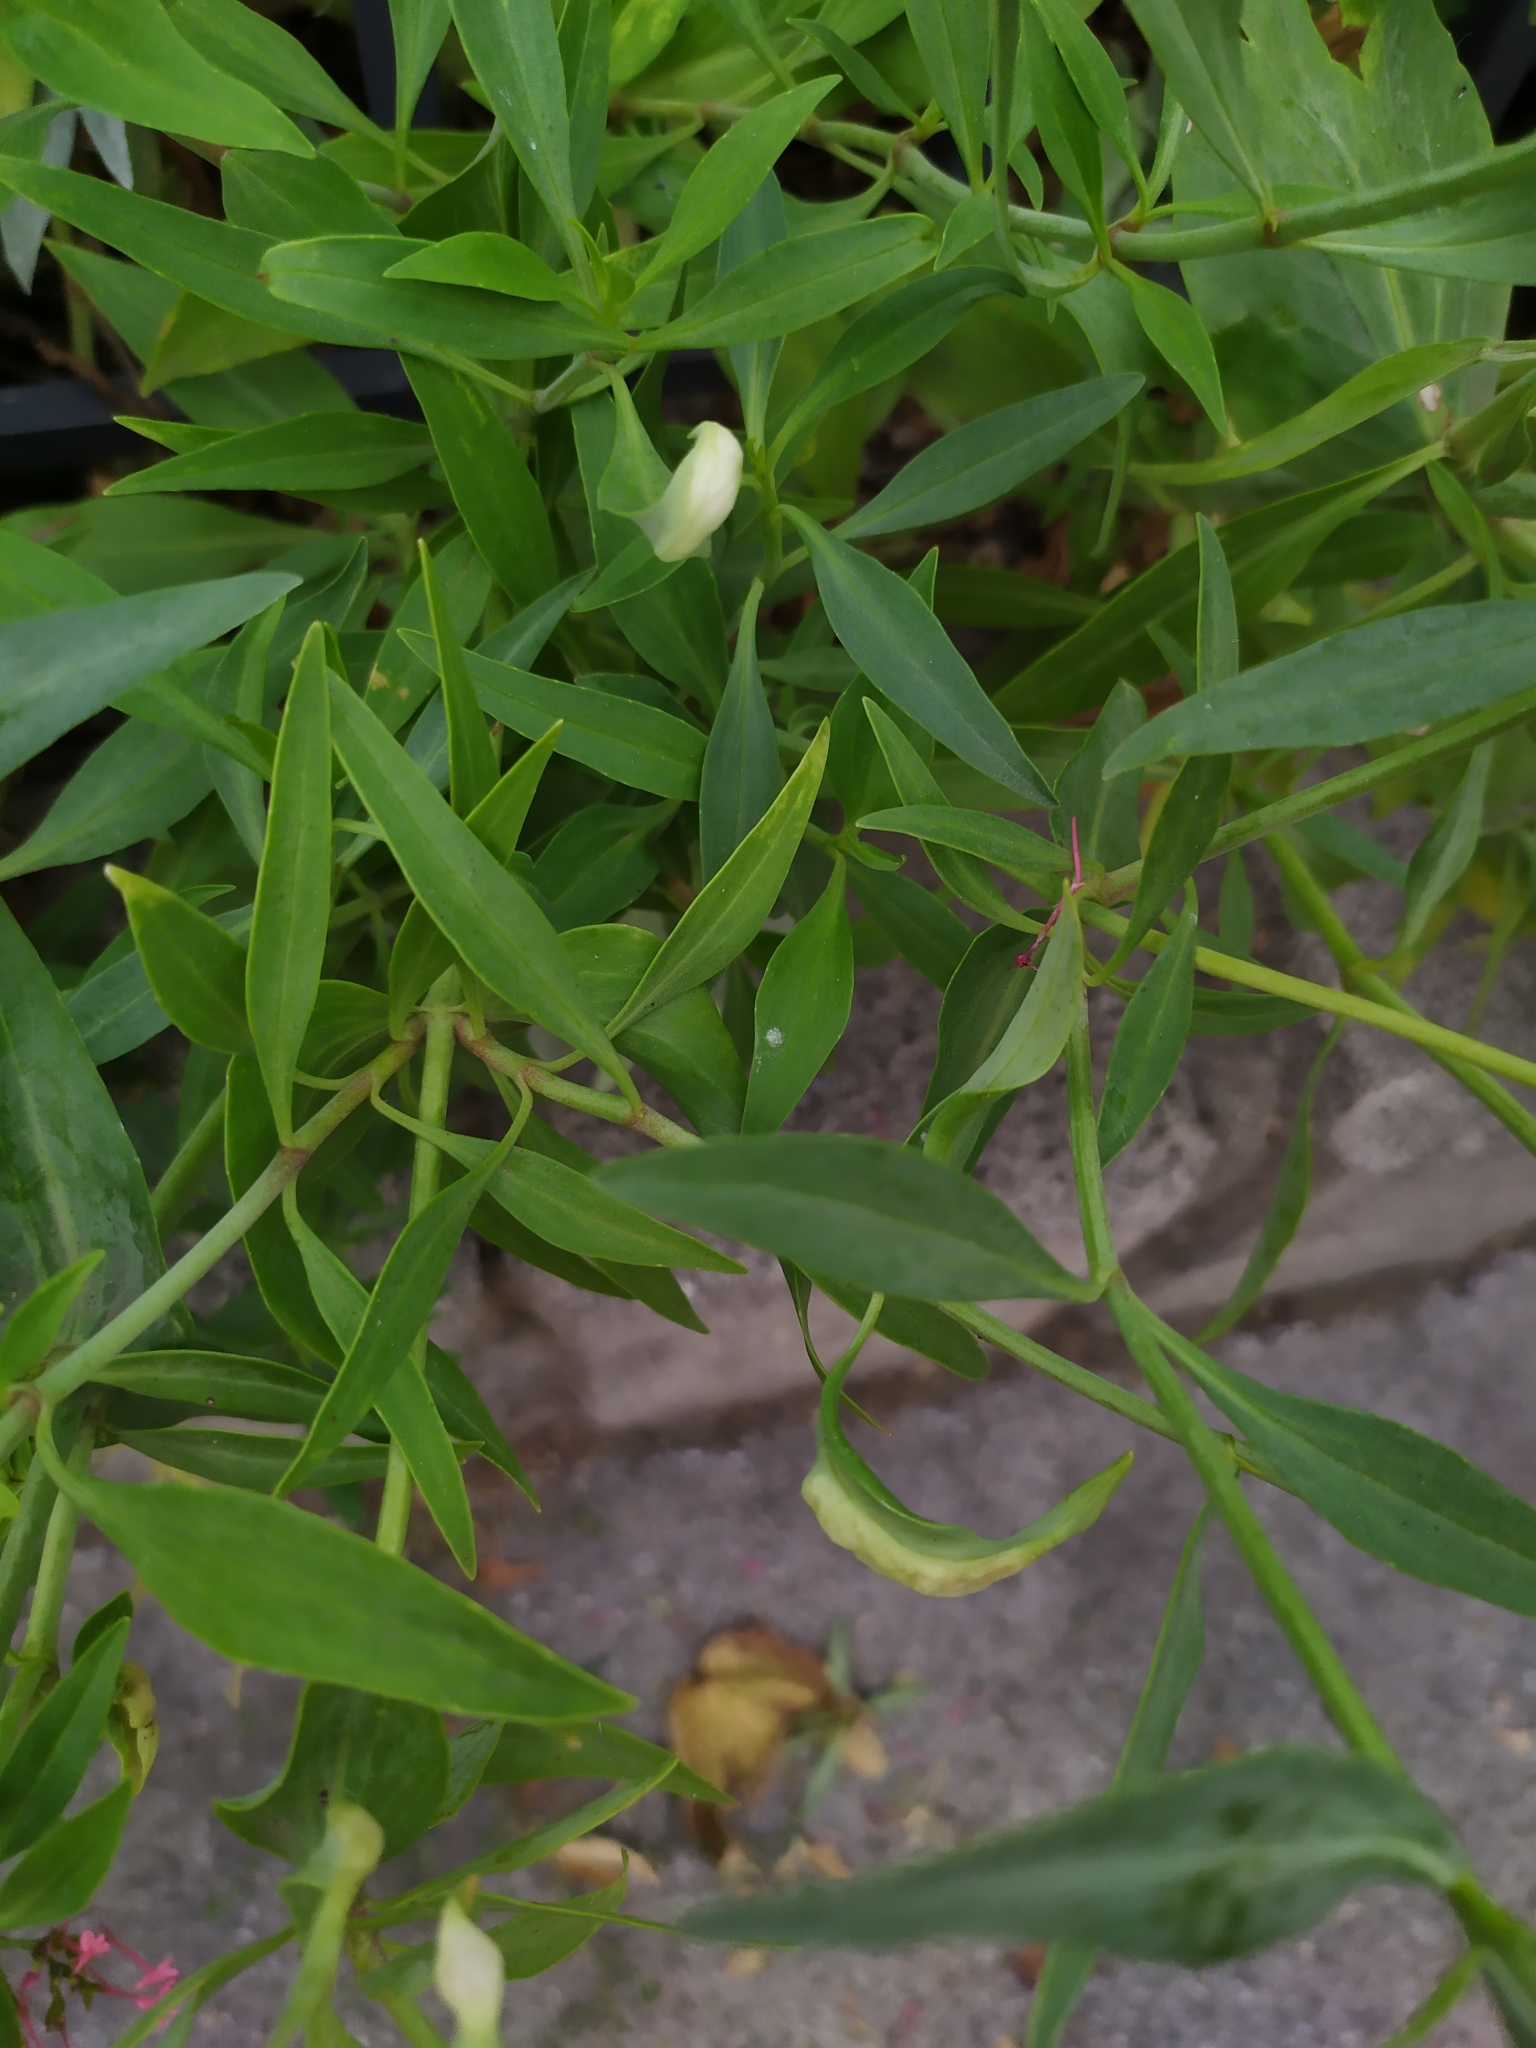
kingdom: Animalia
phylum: Arthropoda
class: Insecta
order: Hemiptera
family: Triozidae
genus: Trioza
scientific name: Trioza centranthi
